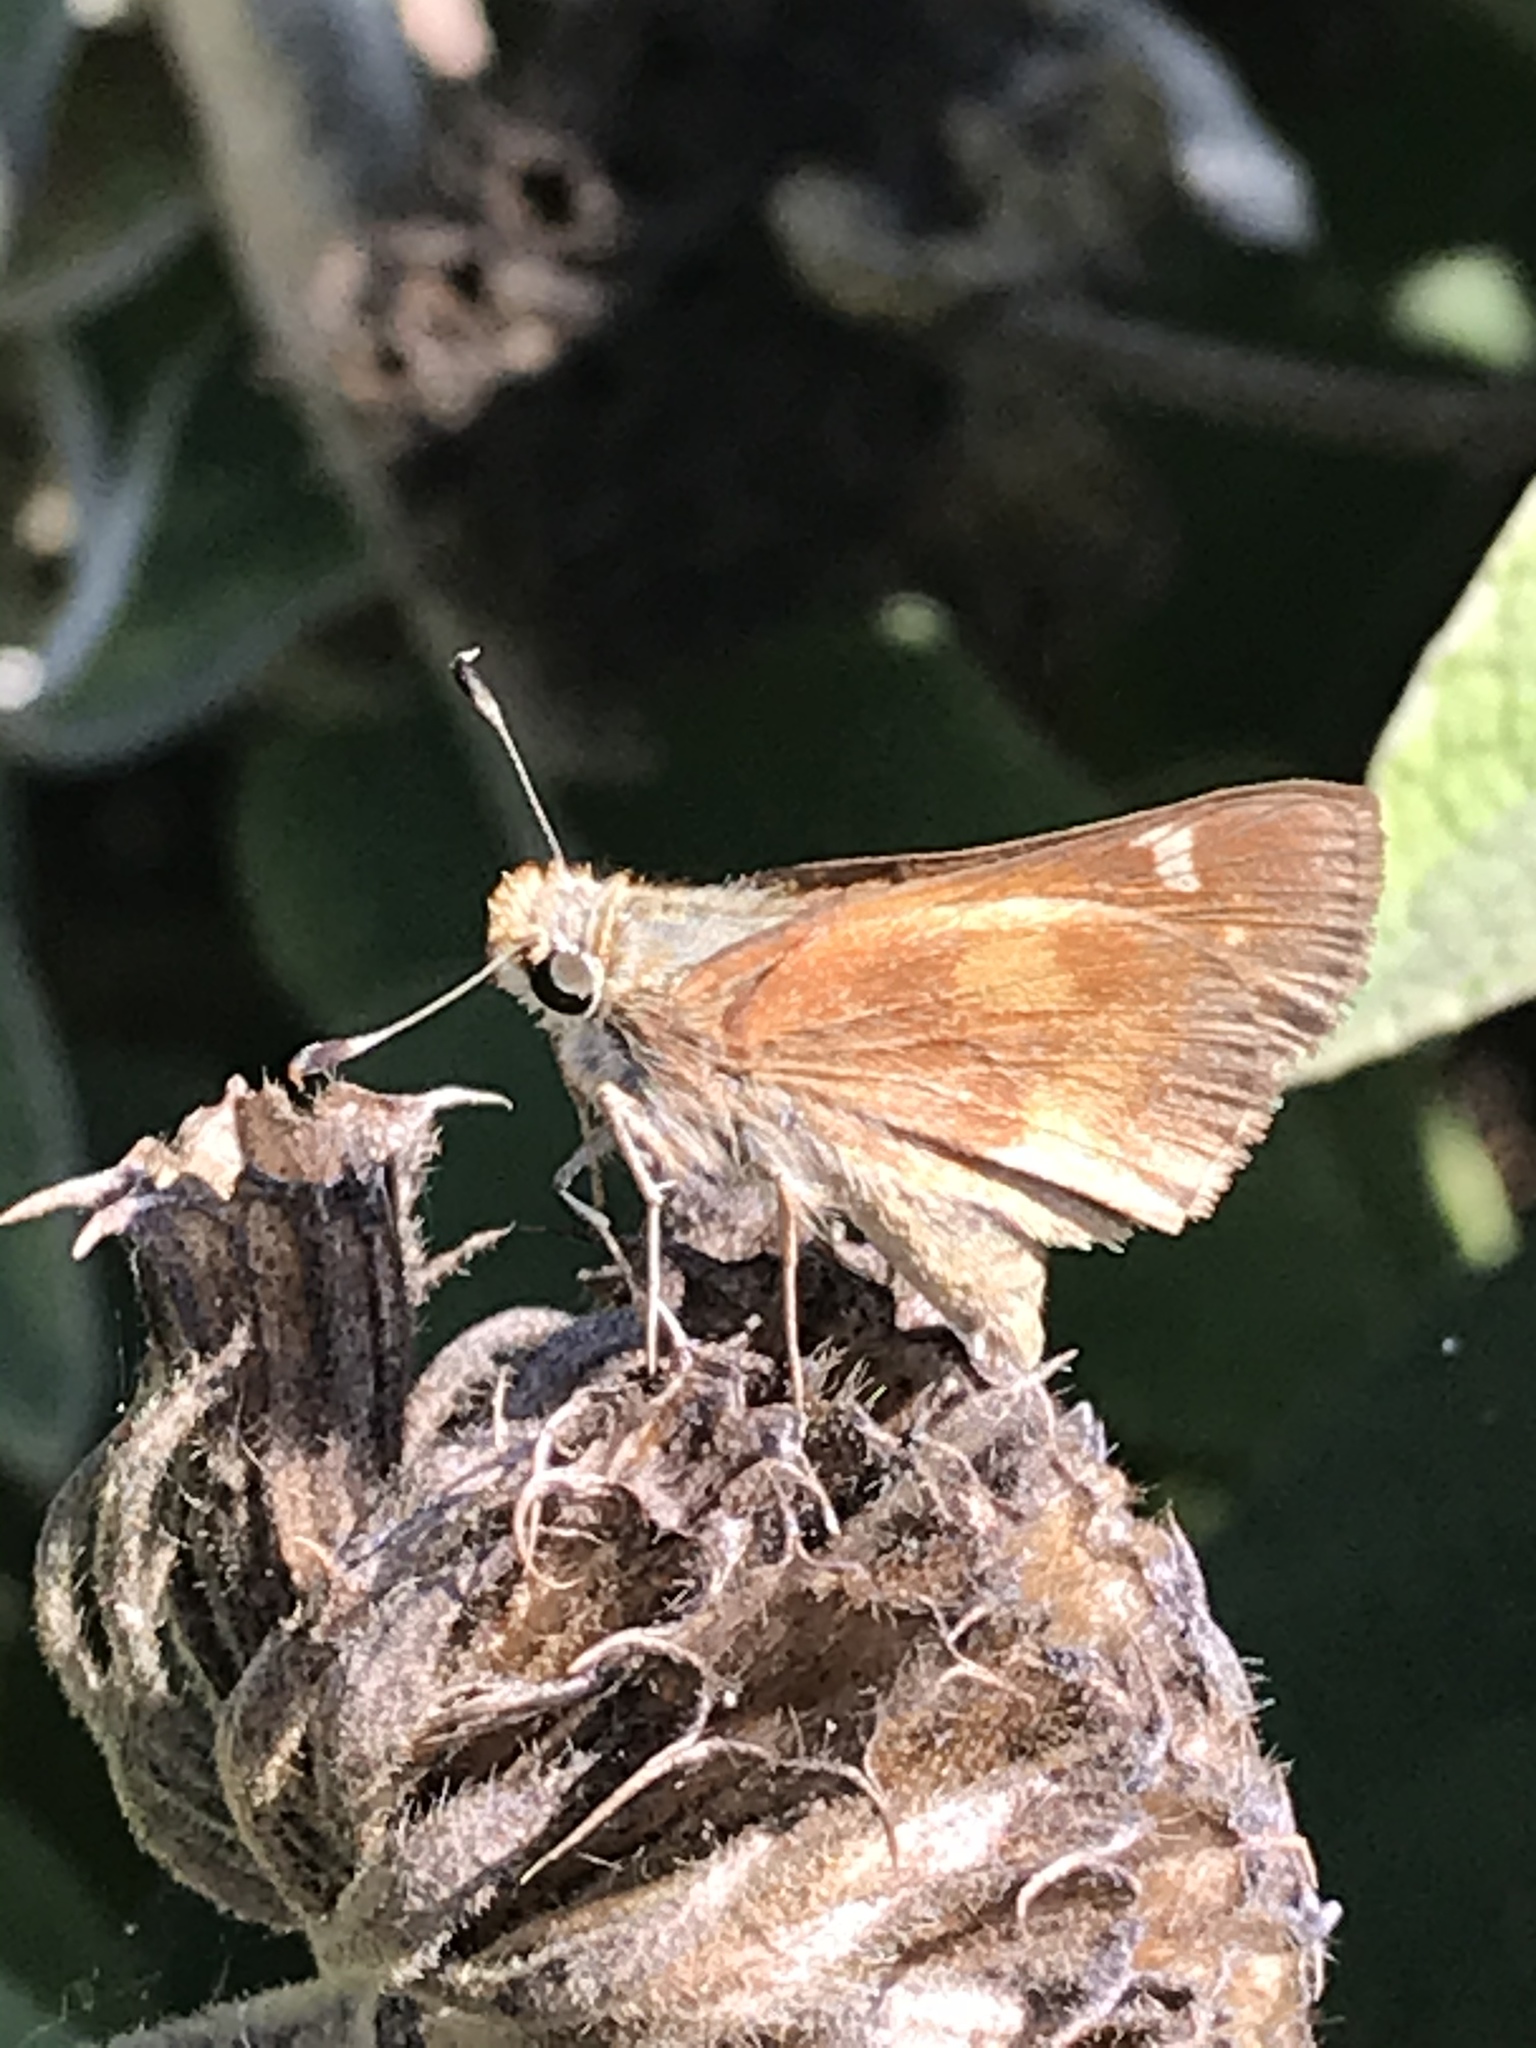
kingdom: Animalia
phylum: Arthropoda
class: Insecta
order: Lepidoptera
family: Hesperiidae
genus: Lon
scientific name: Lon melane
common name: Umber skipper
